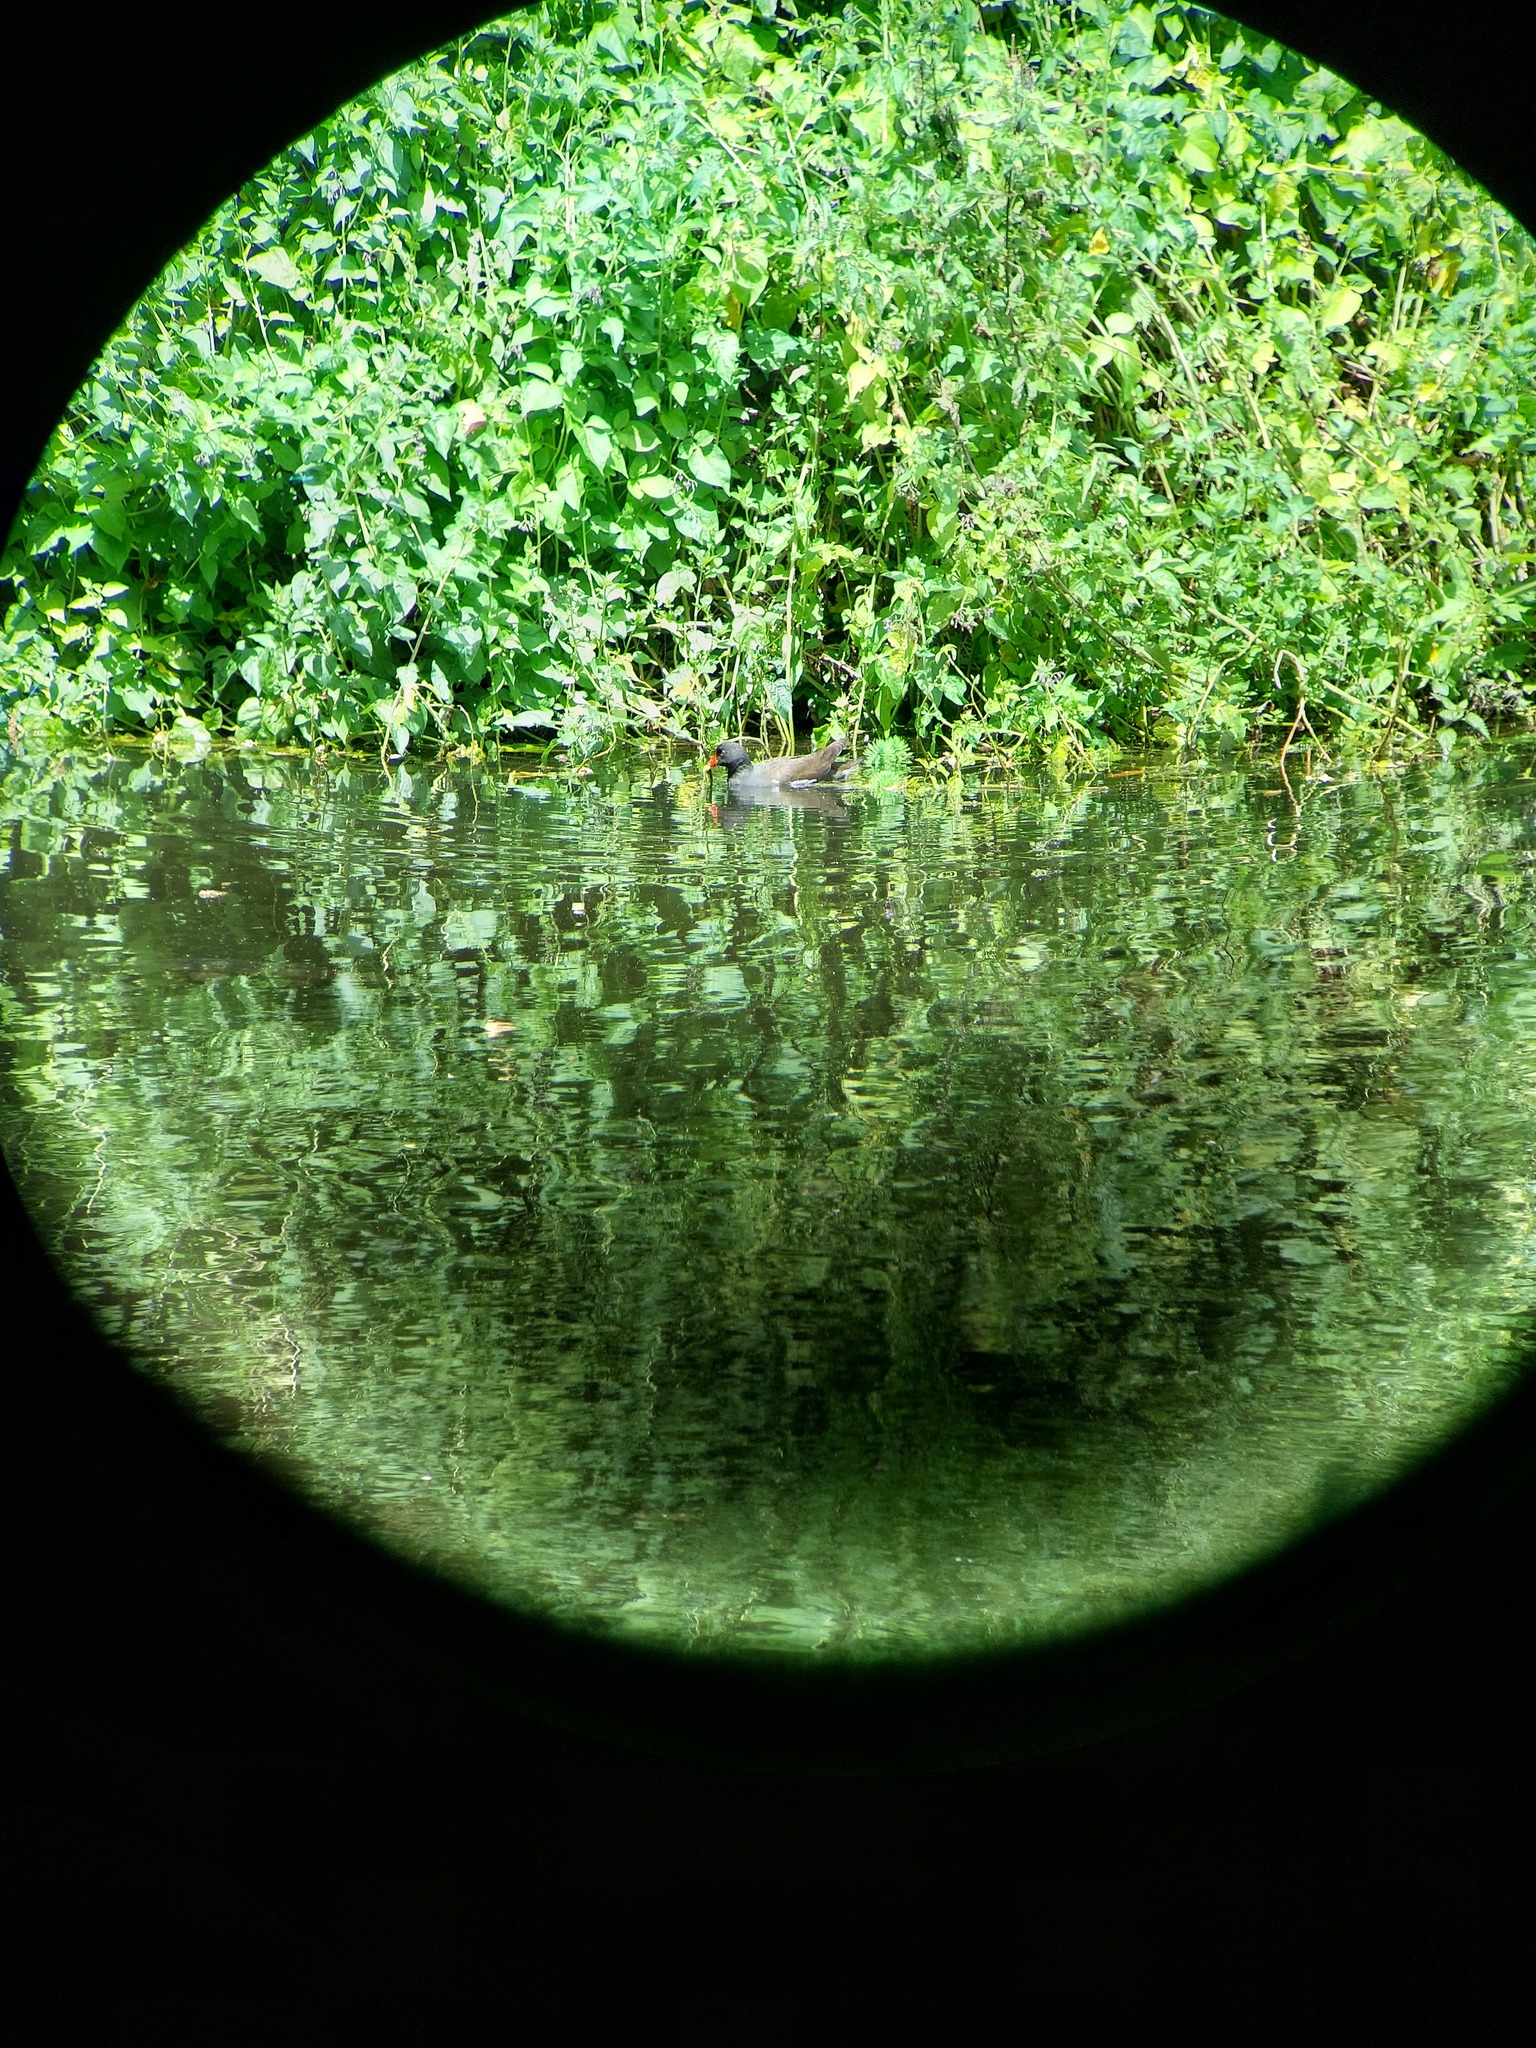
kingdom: Animalia
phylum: Chordata
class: Aves
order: Gruiformes
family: Rallidae
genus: Gallinula
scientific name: Gallinula chloropus
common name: Common moorhen
